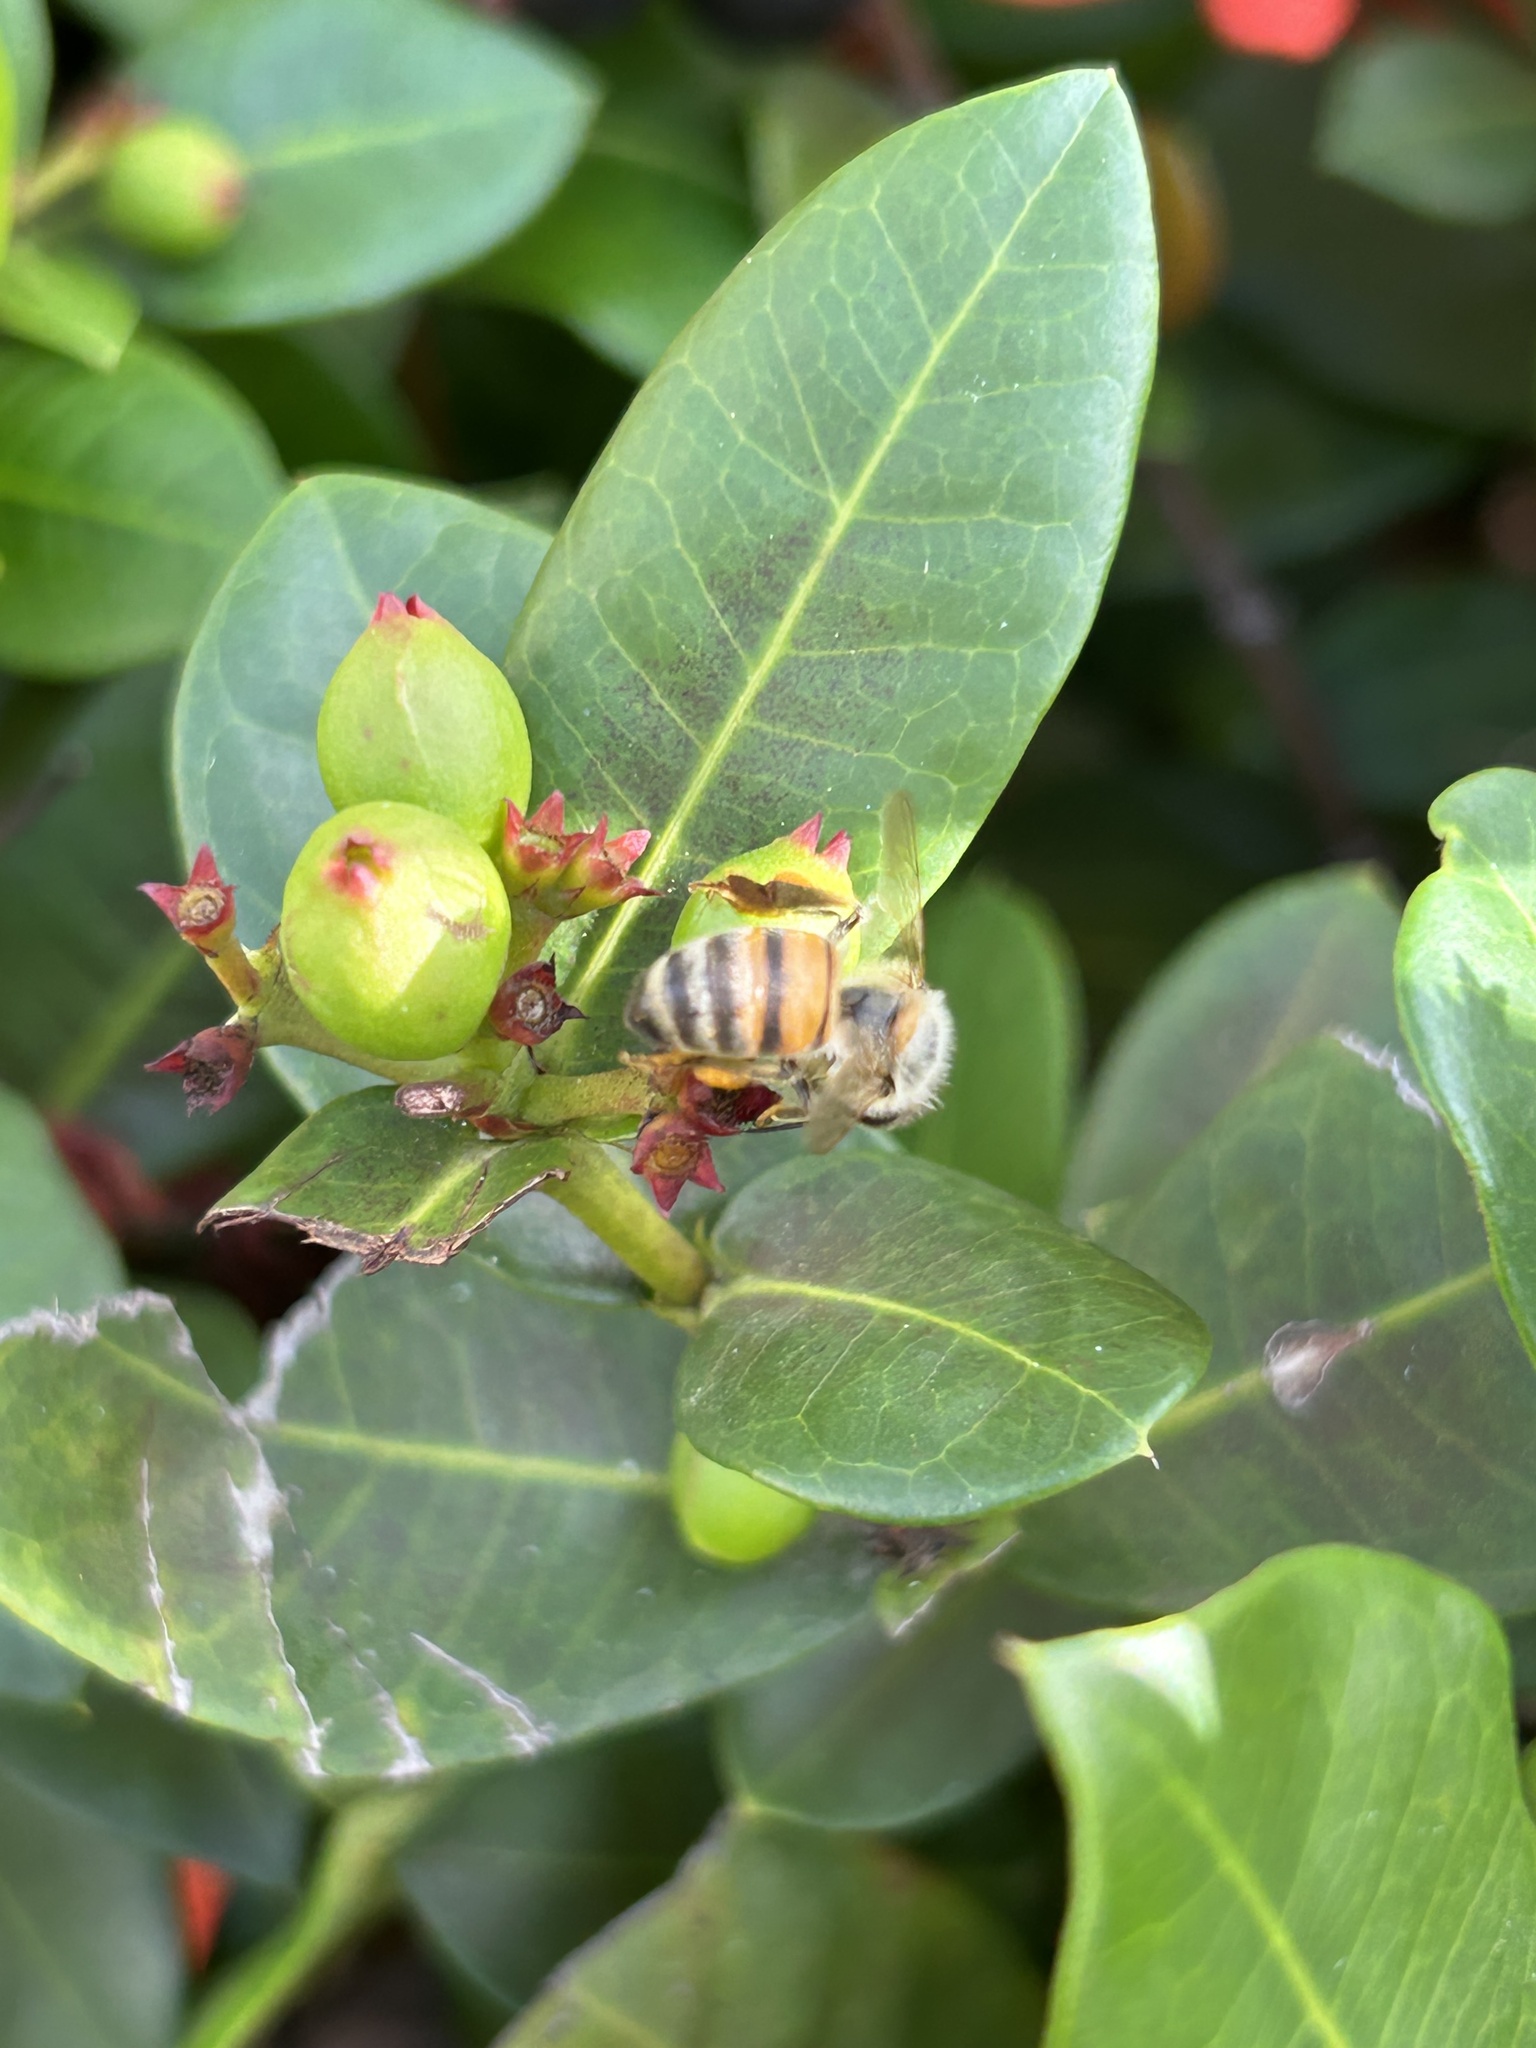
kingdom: Animalia
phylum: Arthropoda
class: Insecta
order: Hymenoptera
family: Apidae
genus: Apis
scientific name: Apis mellifera
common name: Honey bee
